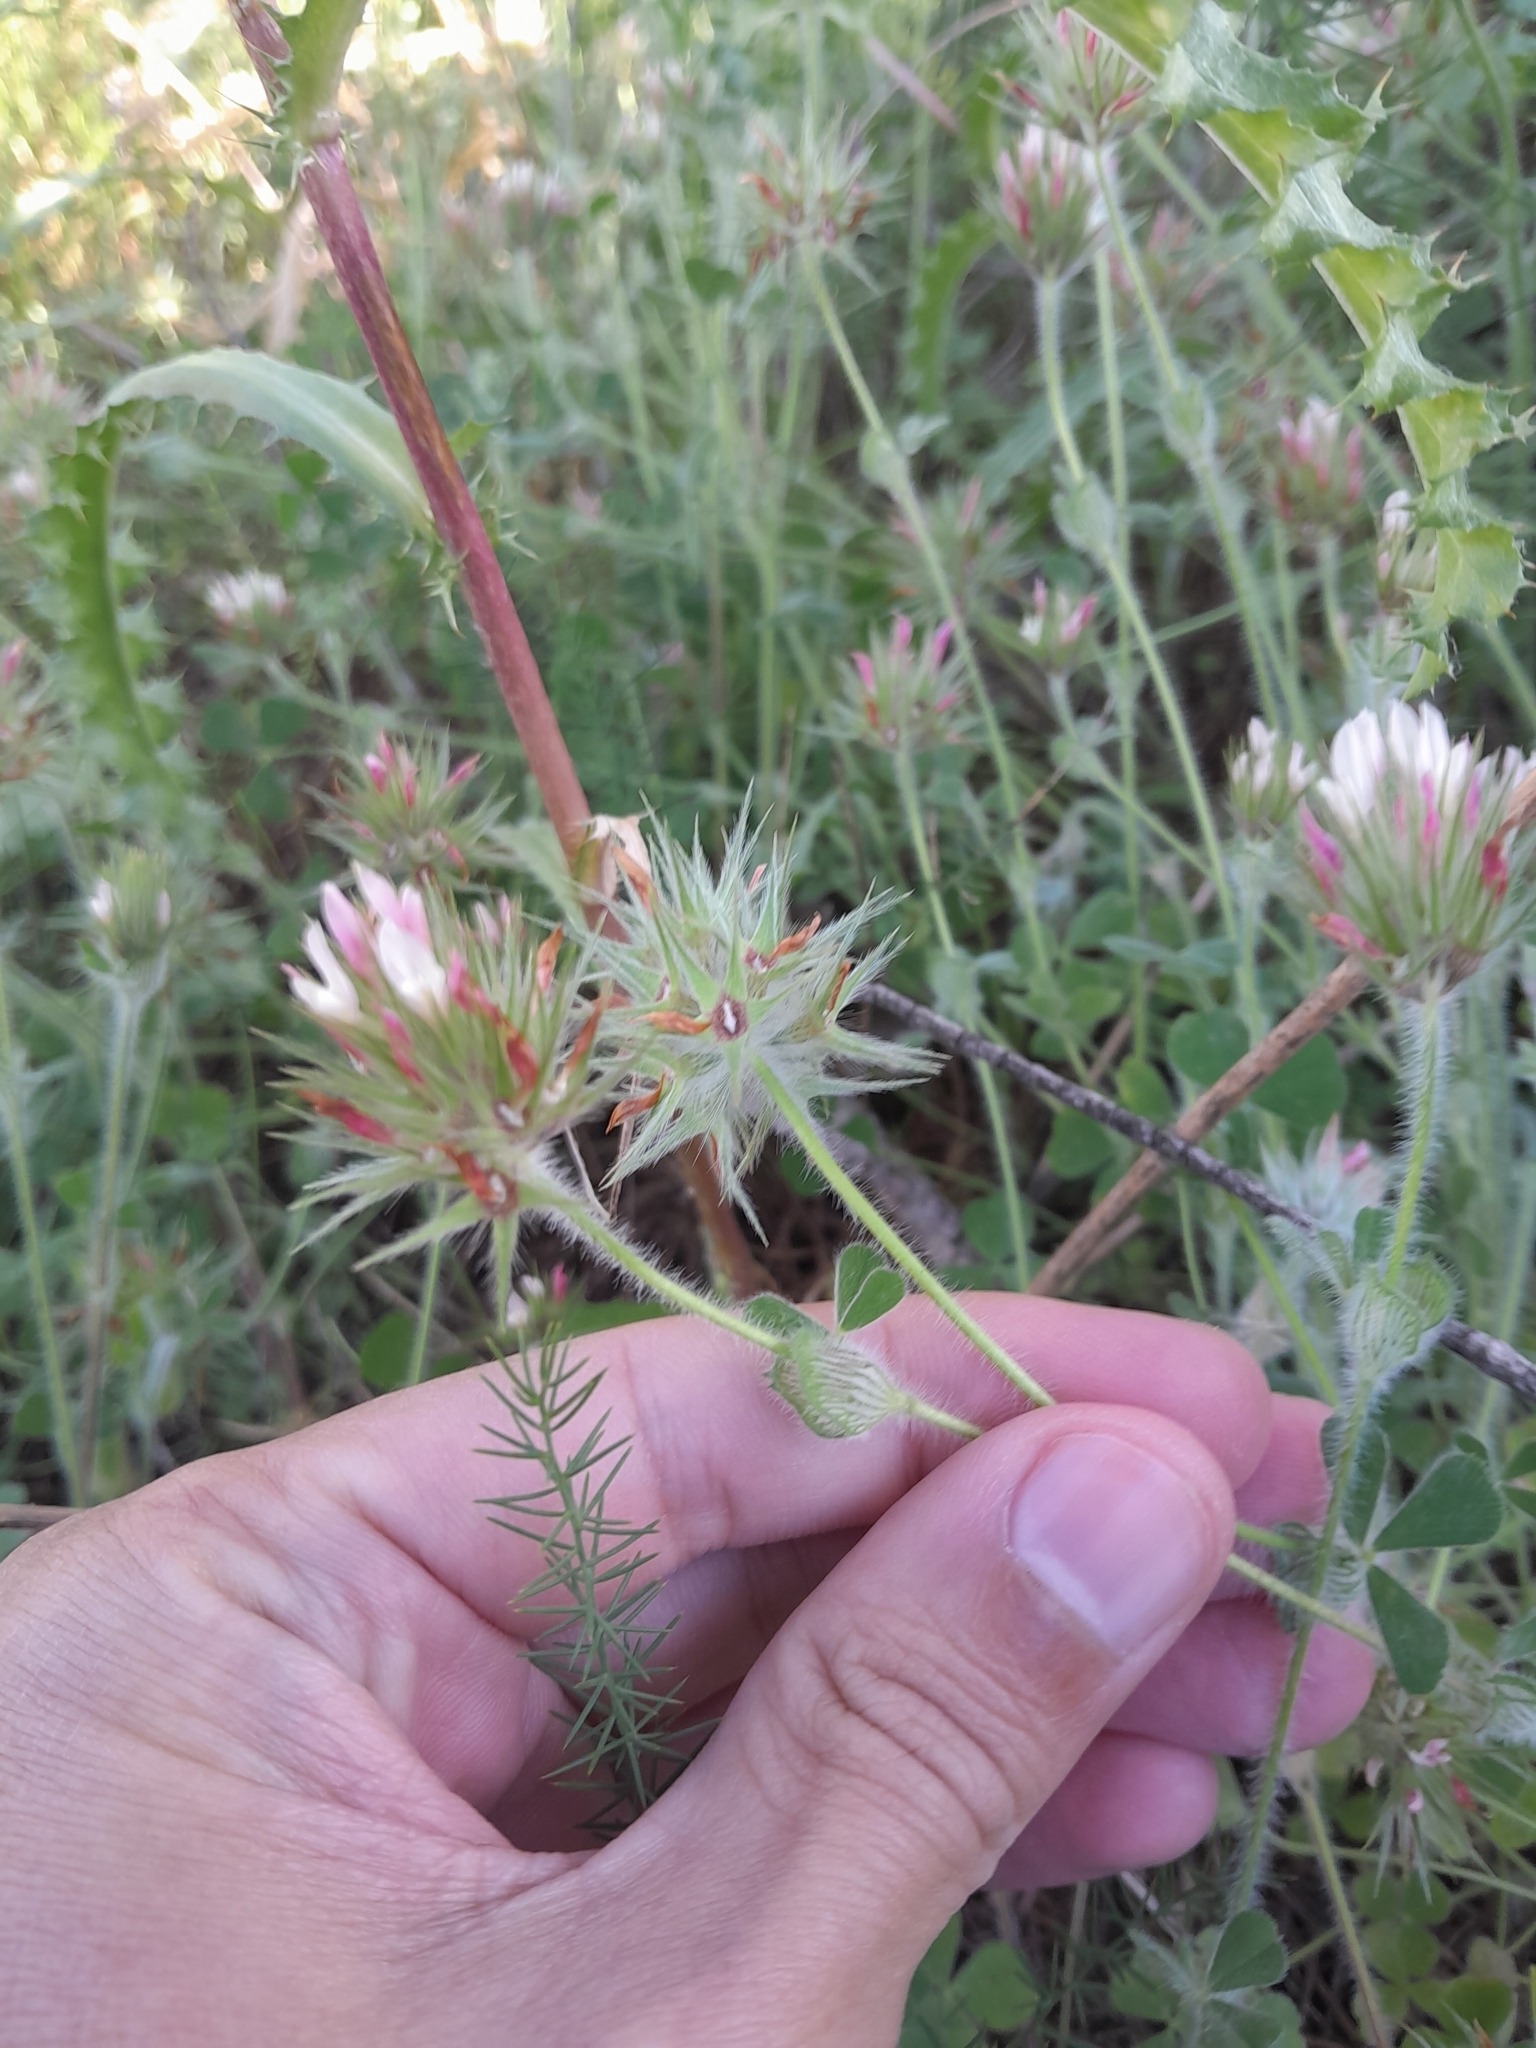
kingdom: Plantae
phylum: Tracheophyta
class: Magnoliopsida
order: Fabales
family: Fabaceae
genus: Trifolium
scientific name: Trifolium stellatum
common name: Starry clover
